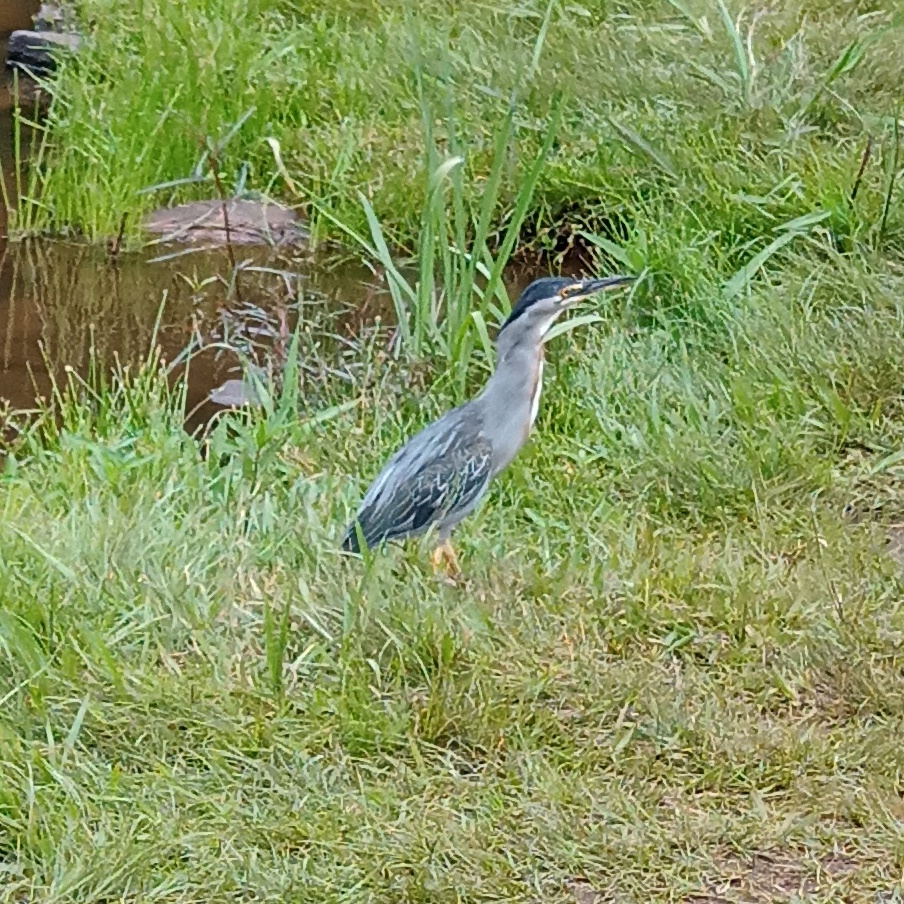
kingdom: Animalia
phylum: Chordata
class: Aves
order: Pelecaniformes
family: Ardeidae
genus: Butorides
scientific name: Butorides striata
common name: Striated heron
